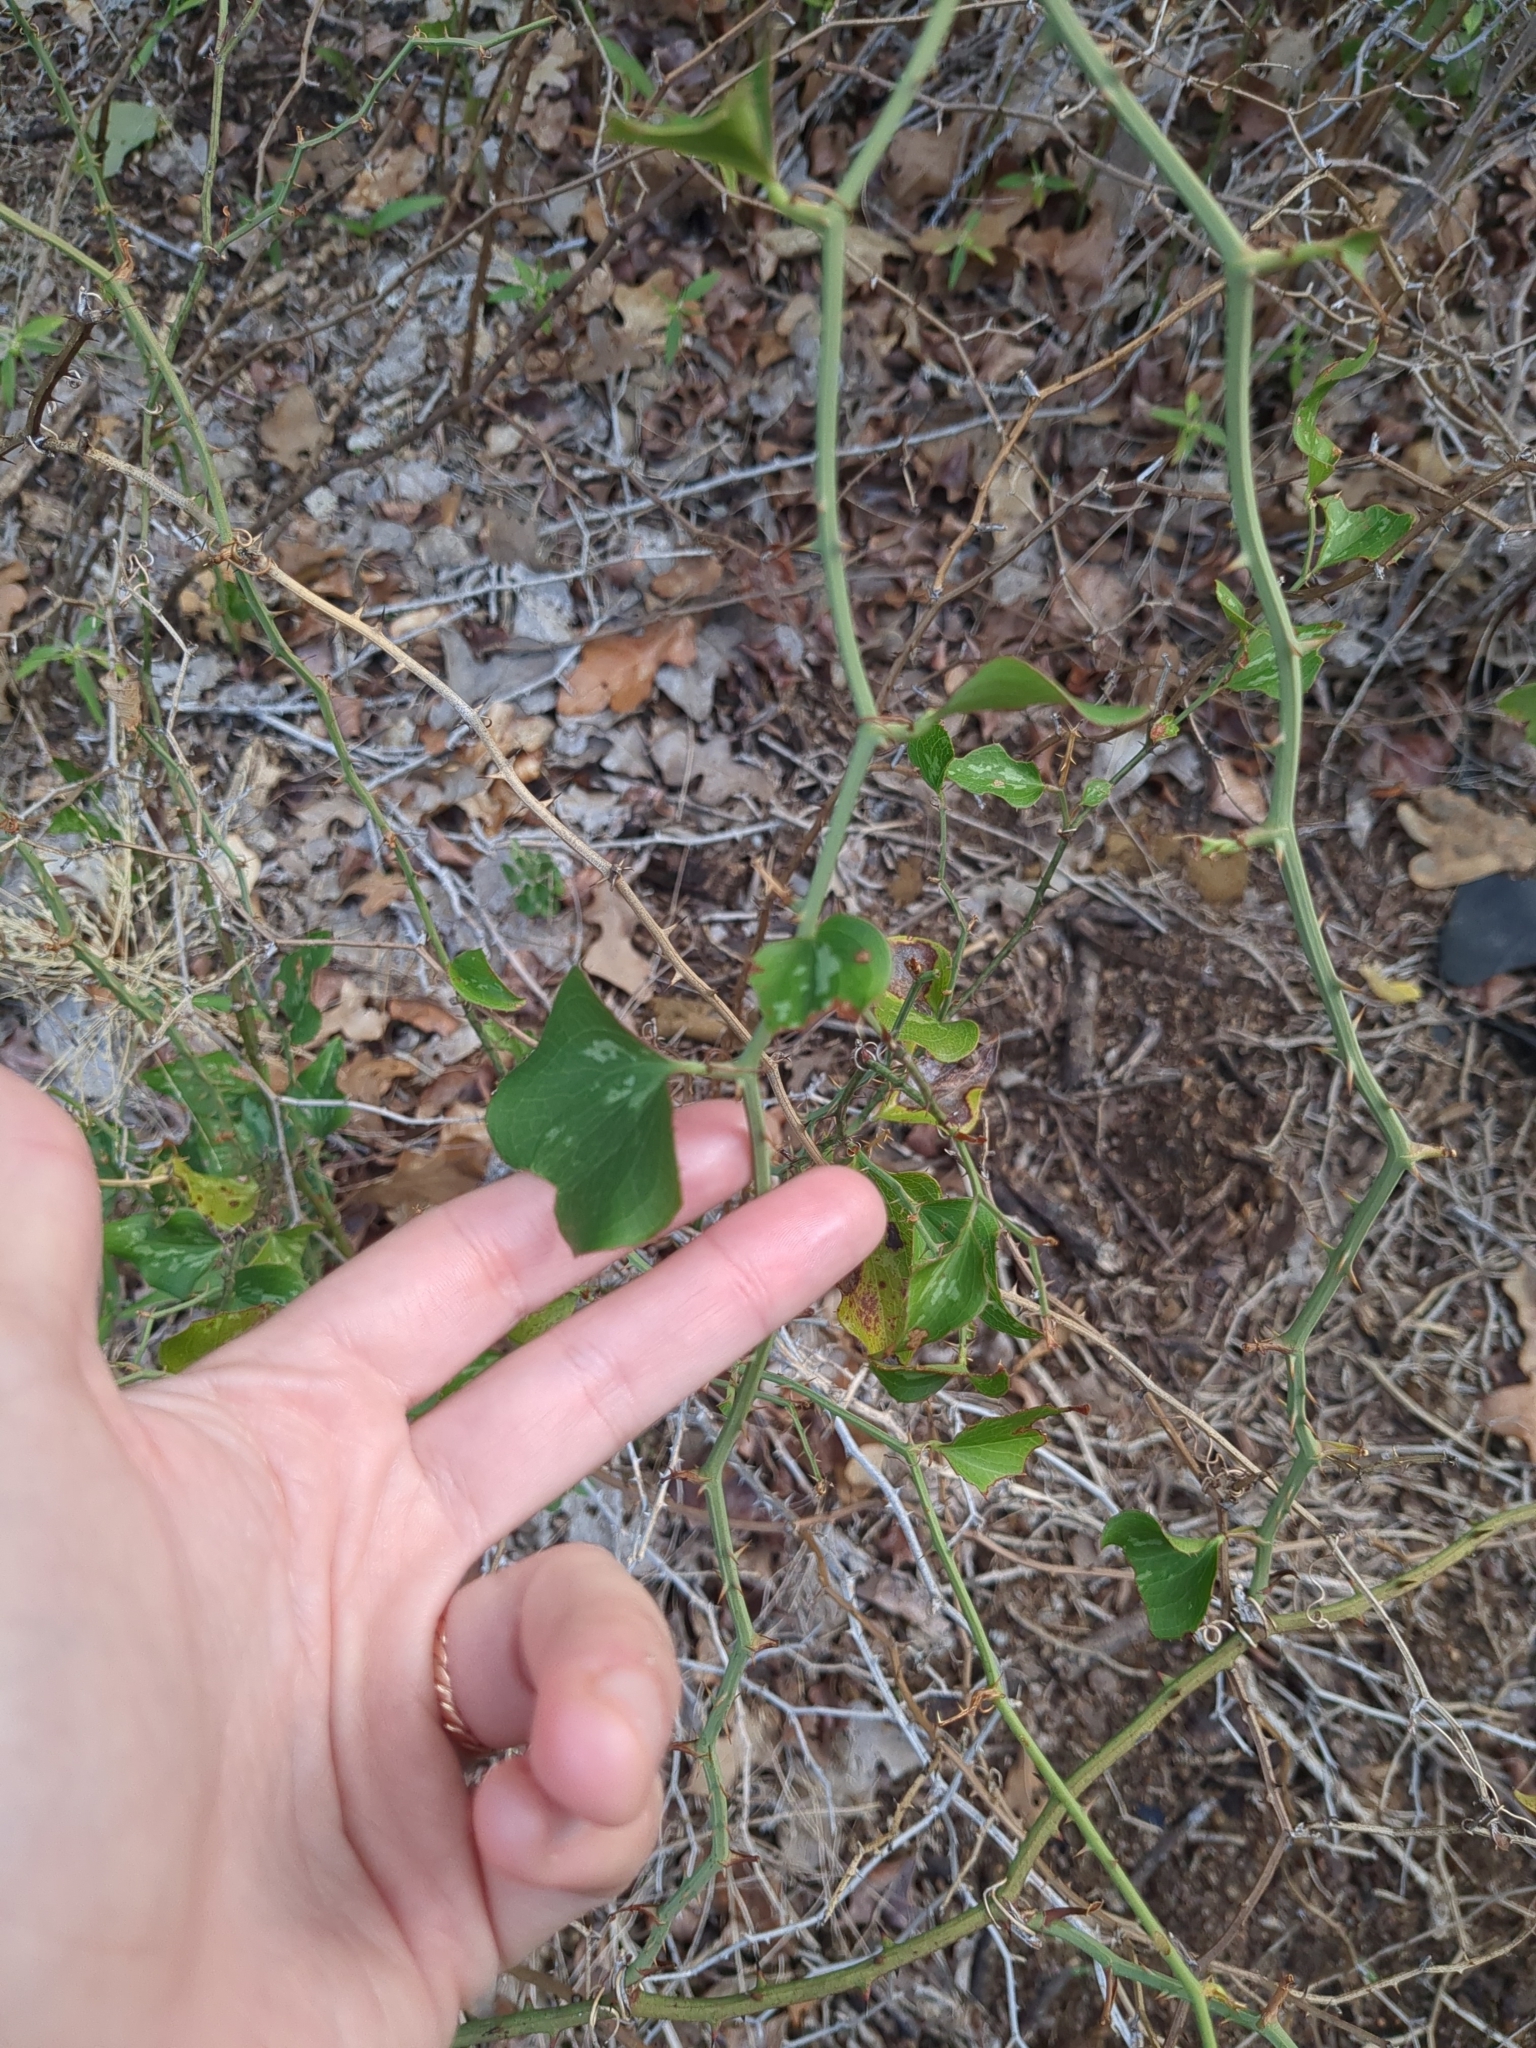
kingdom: Plantae
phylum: Tracheophyta
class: Liliopsida
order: Liliales
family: Smilacaceae
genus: Smilax
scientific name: Smilax bona-nox
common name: Catbrier
